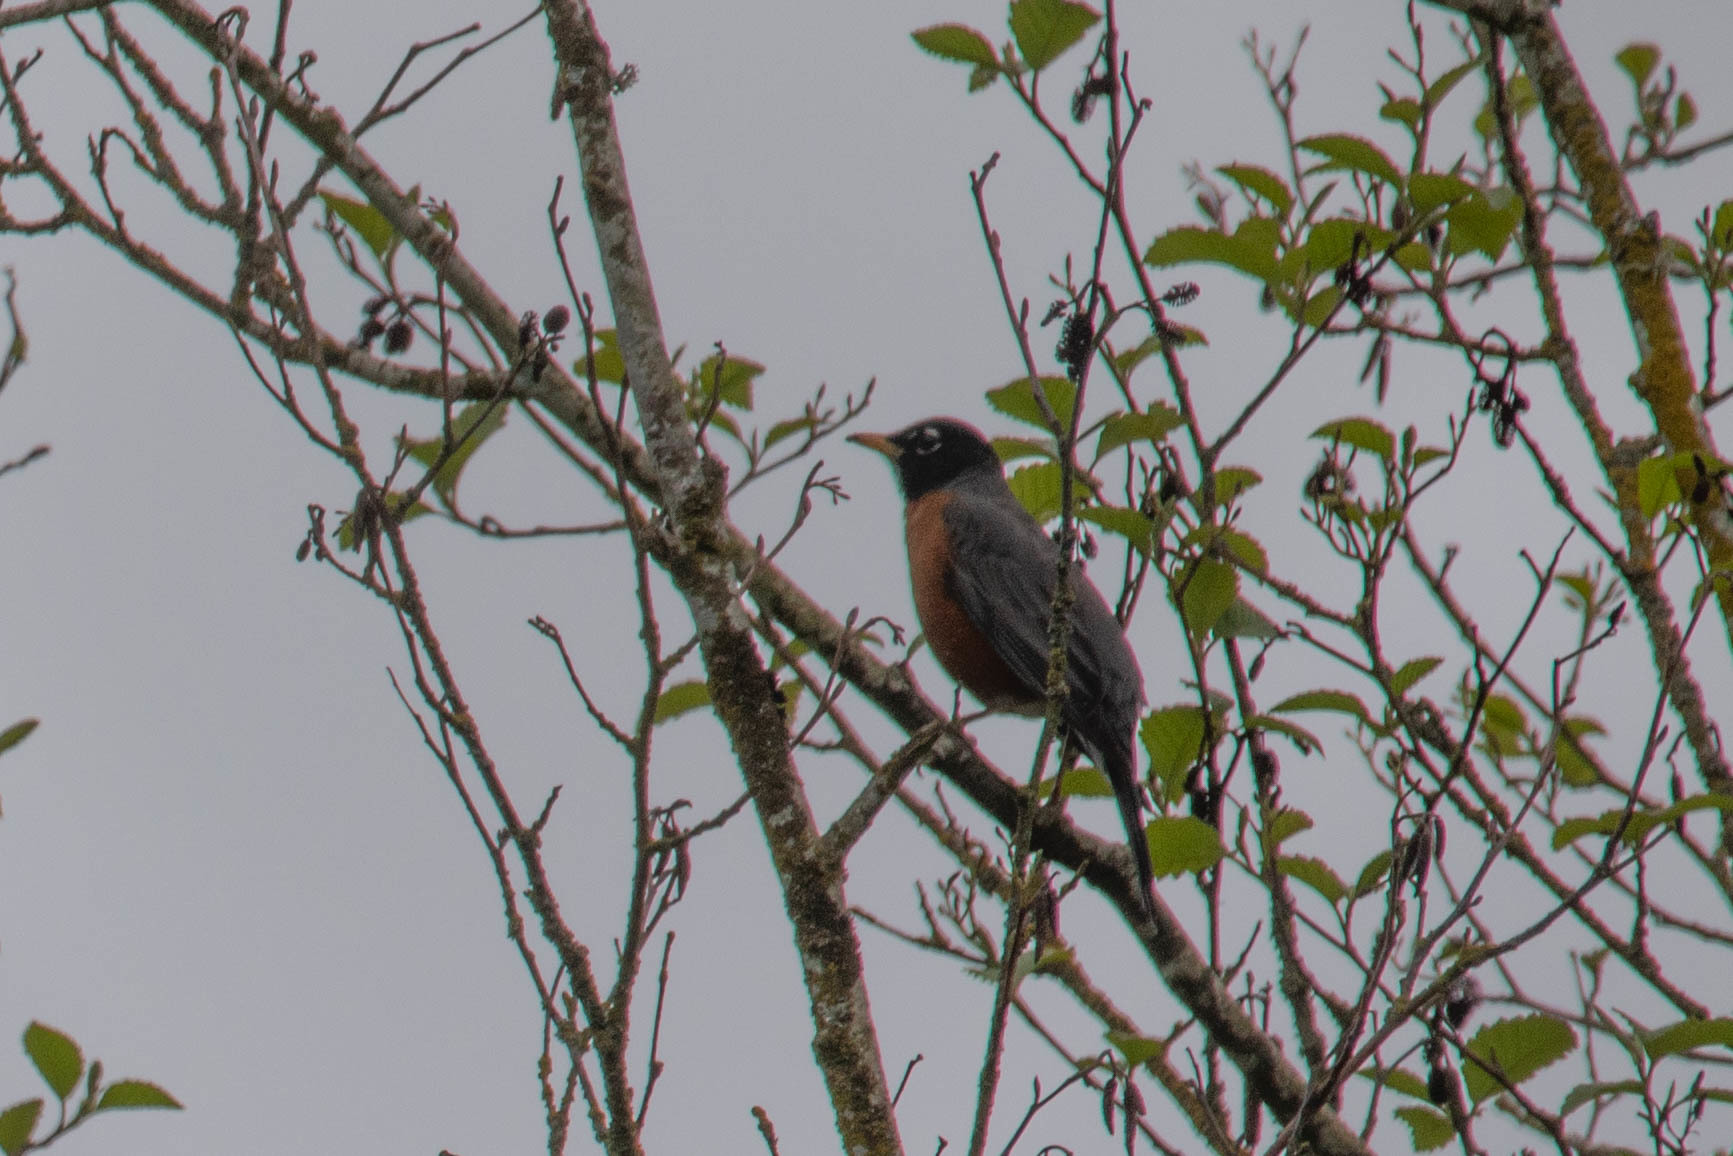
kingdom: Animalia
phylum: Chordata
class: Aves
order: Passeriformes
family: Turdidae
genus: Turdus
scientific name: Turdus migratorius
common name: American robin
